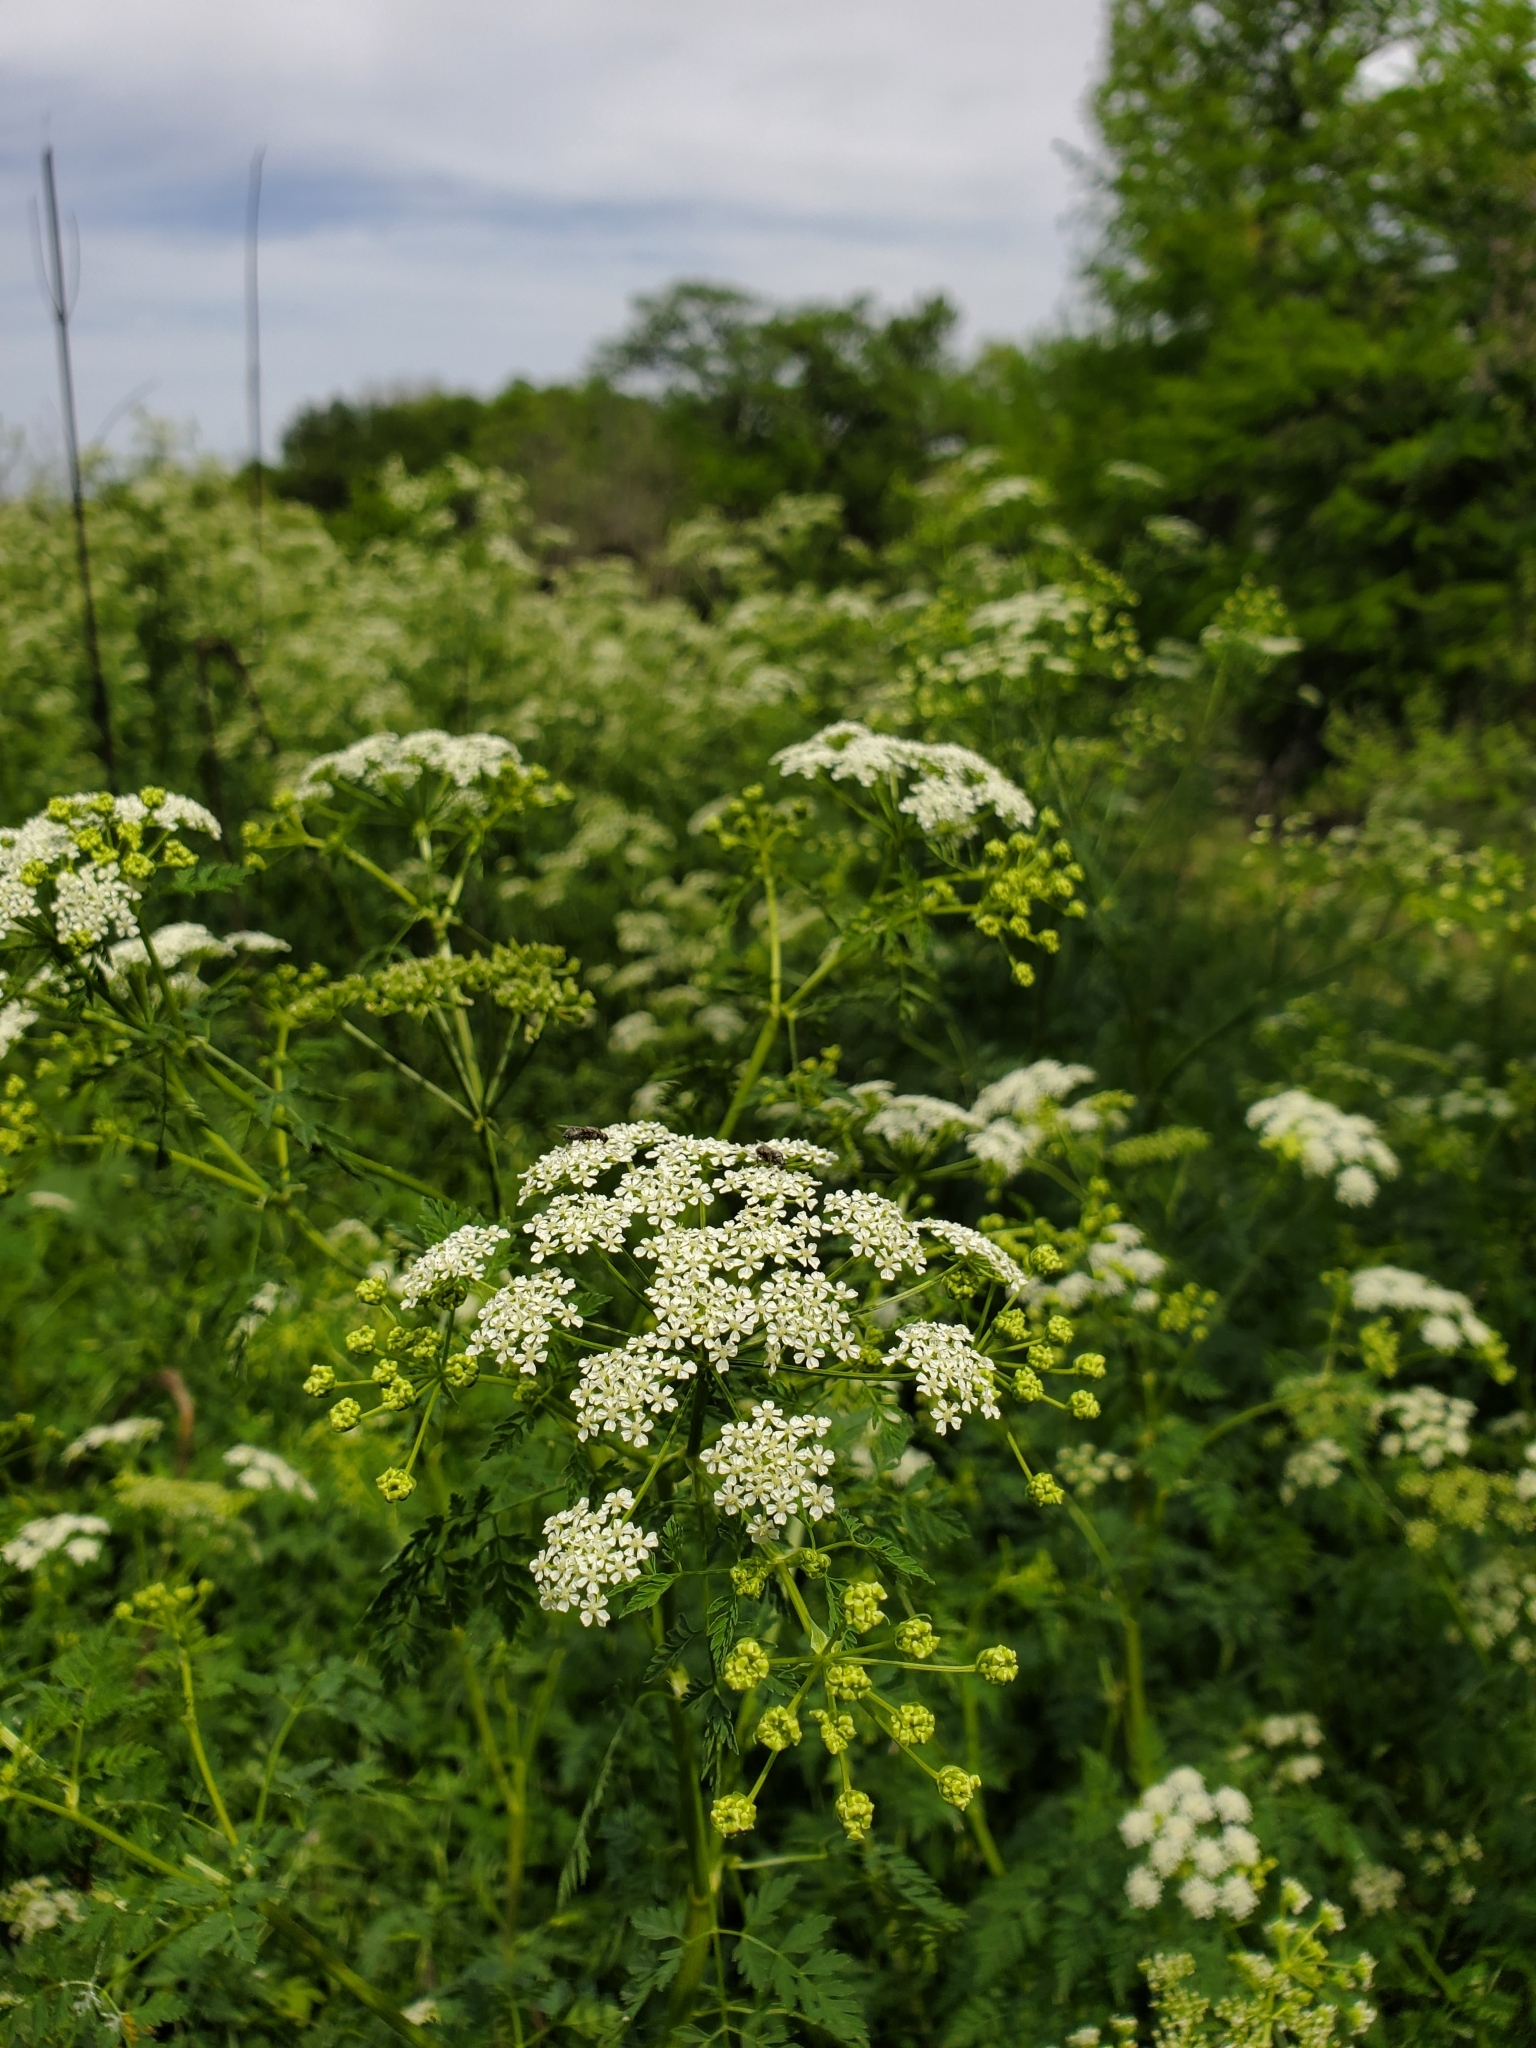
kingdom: Plantae
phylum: Tracheophyta
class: Magnoliopsida
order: Apiales
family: Apiaceae
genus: Conium
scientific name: Conium maculatum
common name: Hemlock
